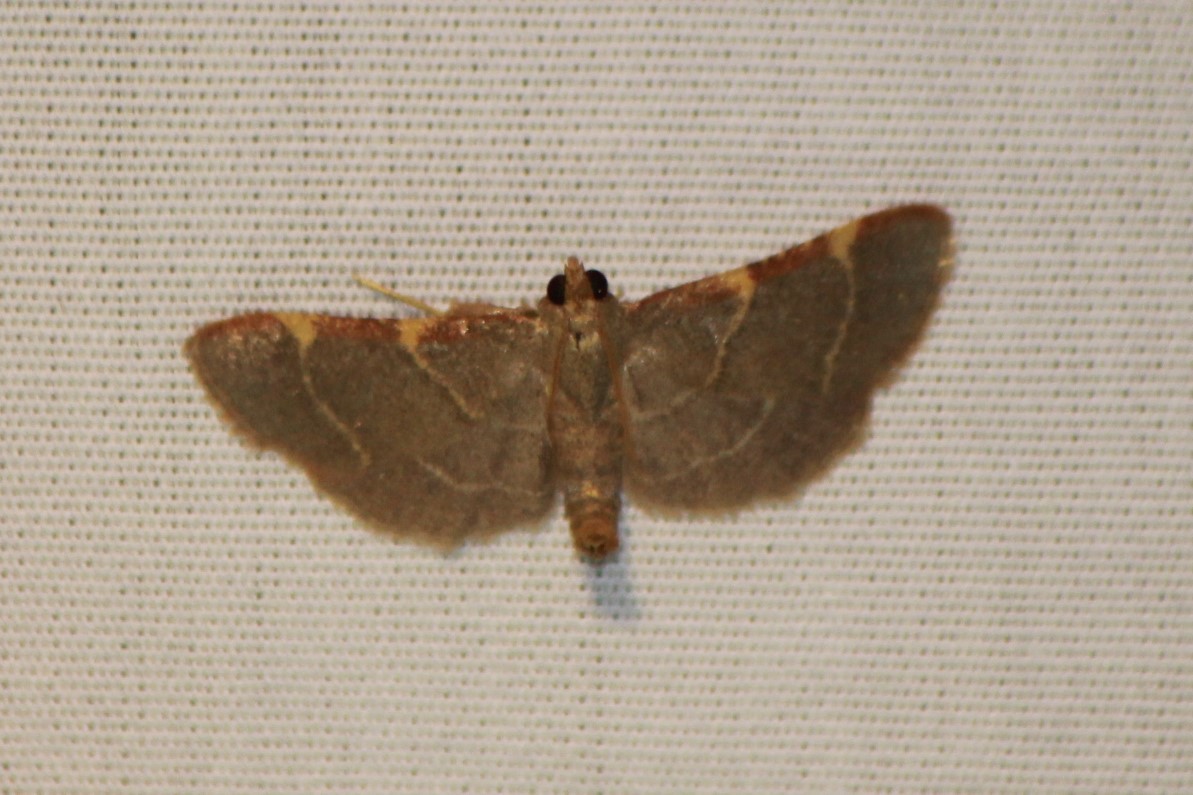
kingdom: Animalia
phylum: Arthropoda
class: Insecta
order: Lepidoptera
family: Pyralidae
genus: Hypsopygia
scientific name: Hypsopygia binodulalis
